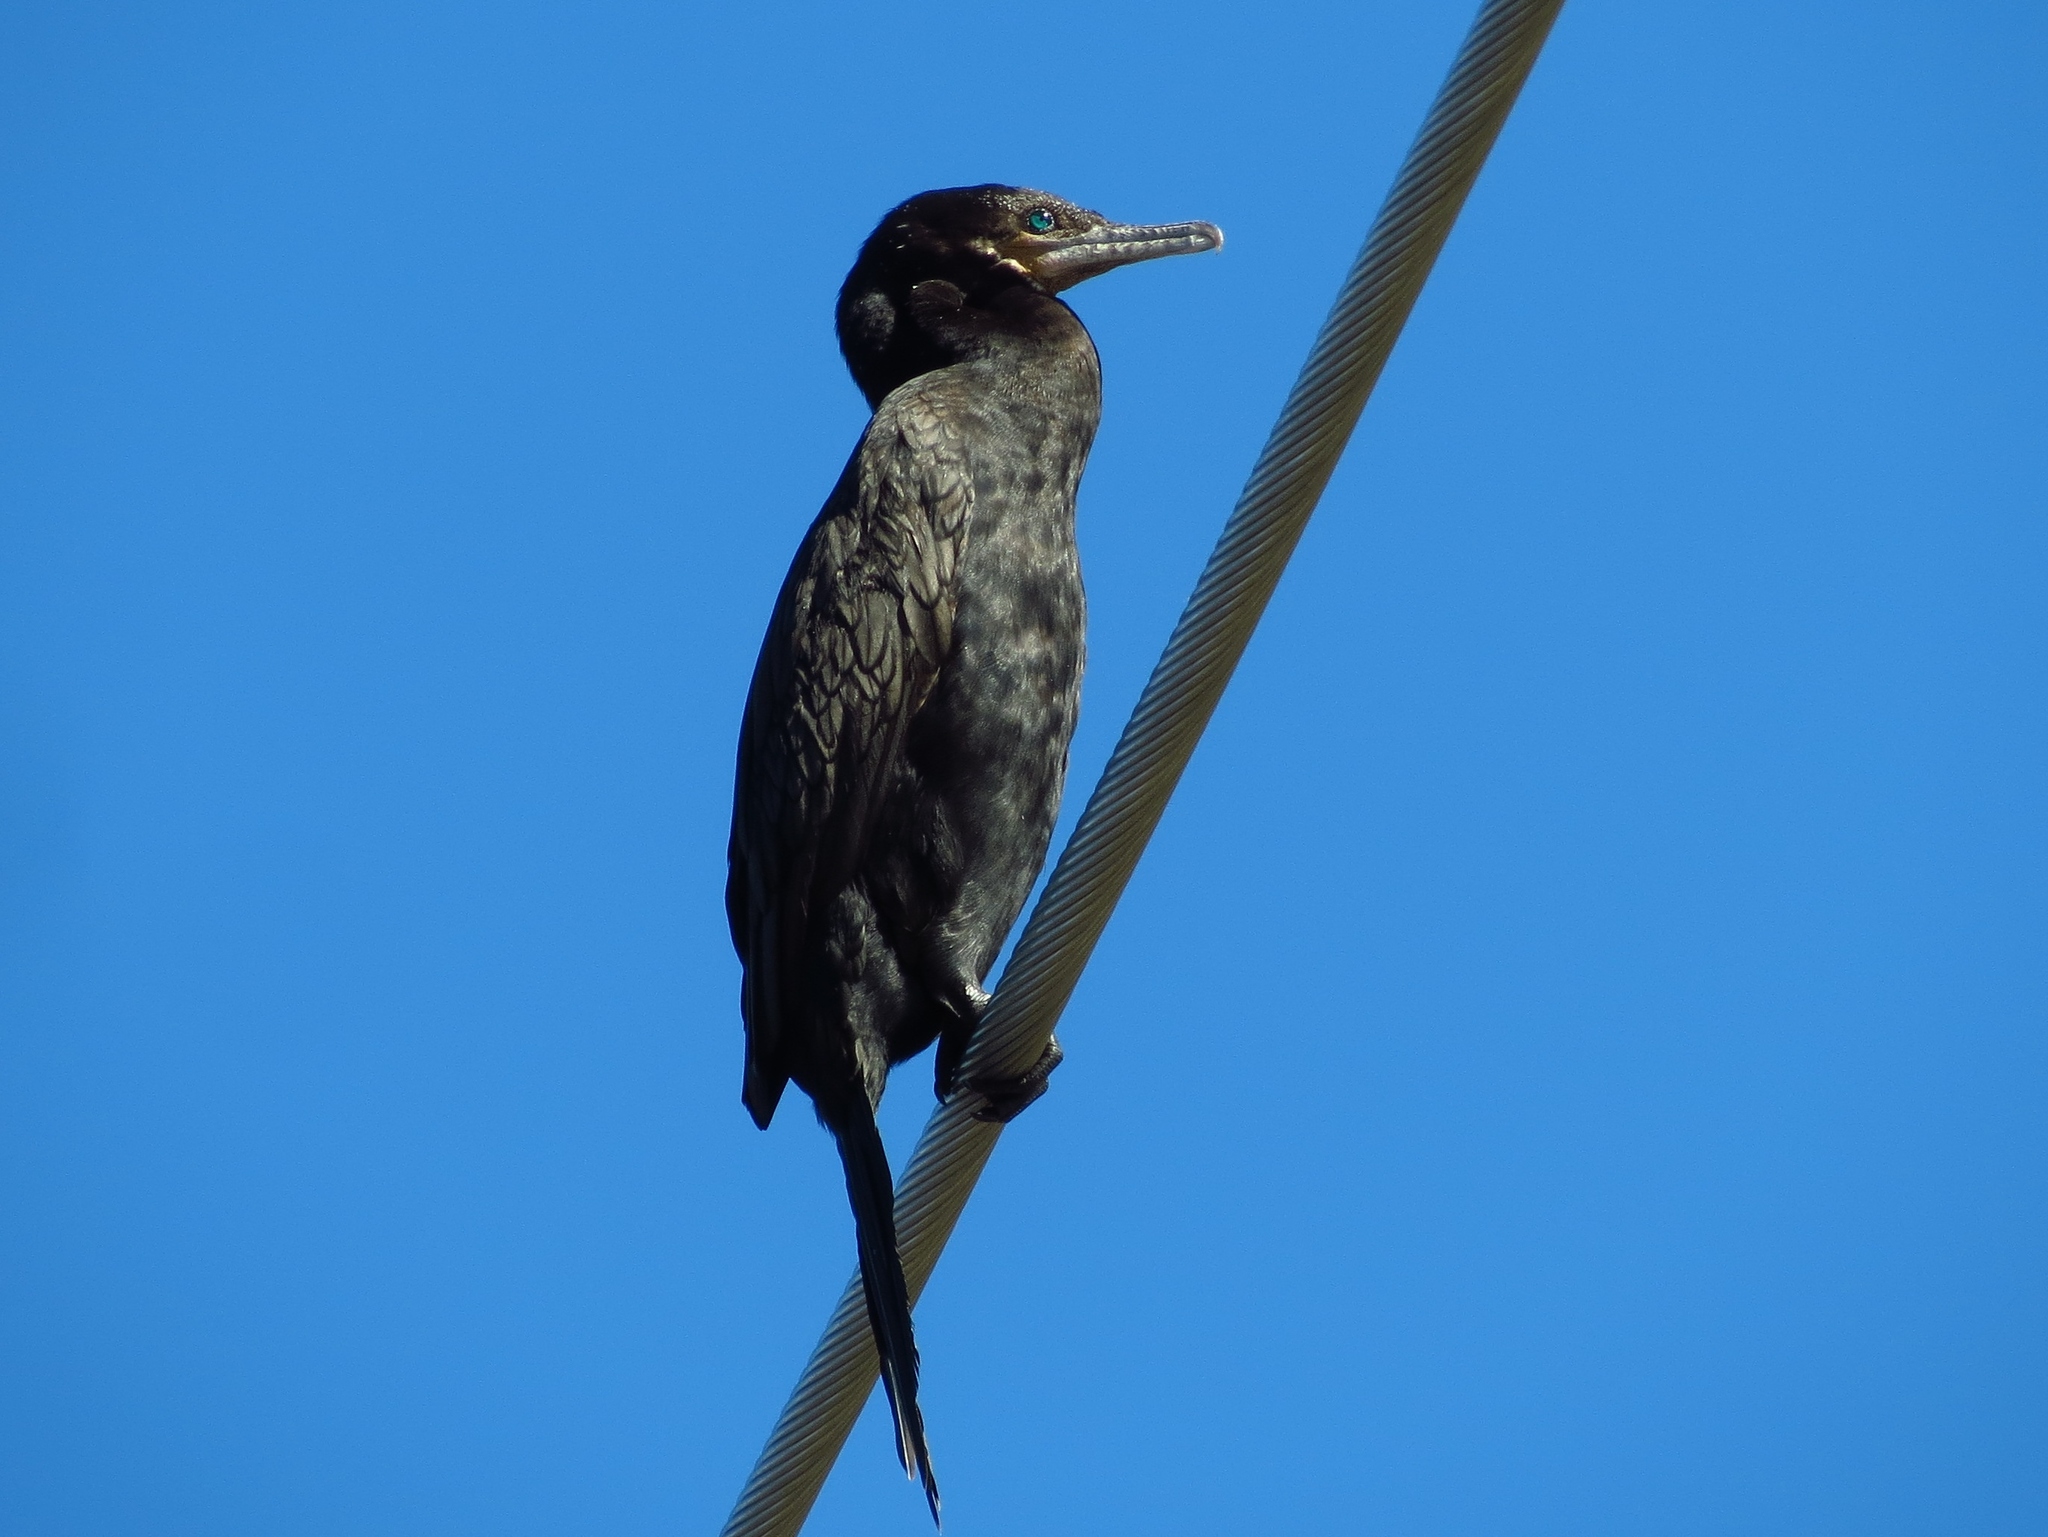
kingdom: Animalia
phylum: Chordata
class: Aves
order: Suliformes
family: Phalacrocoracidae
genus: Phalacrocorax
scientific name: Phalacrocorax brasilianus
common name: Neotropic cormorant
